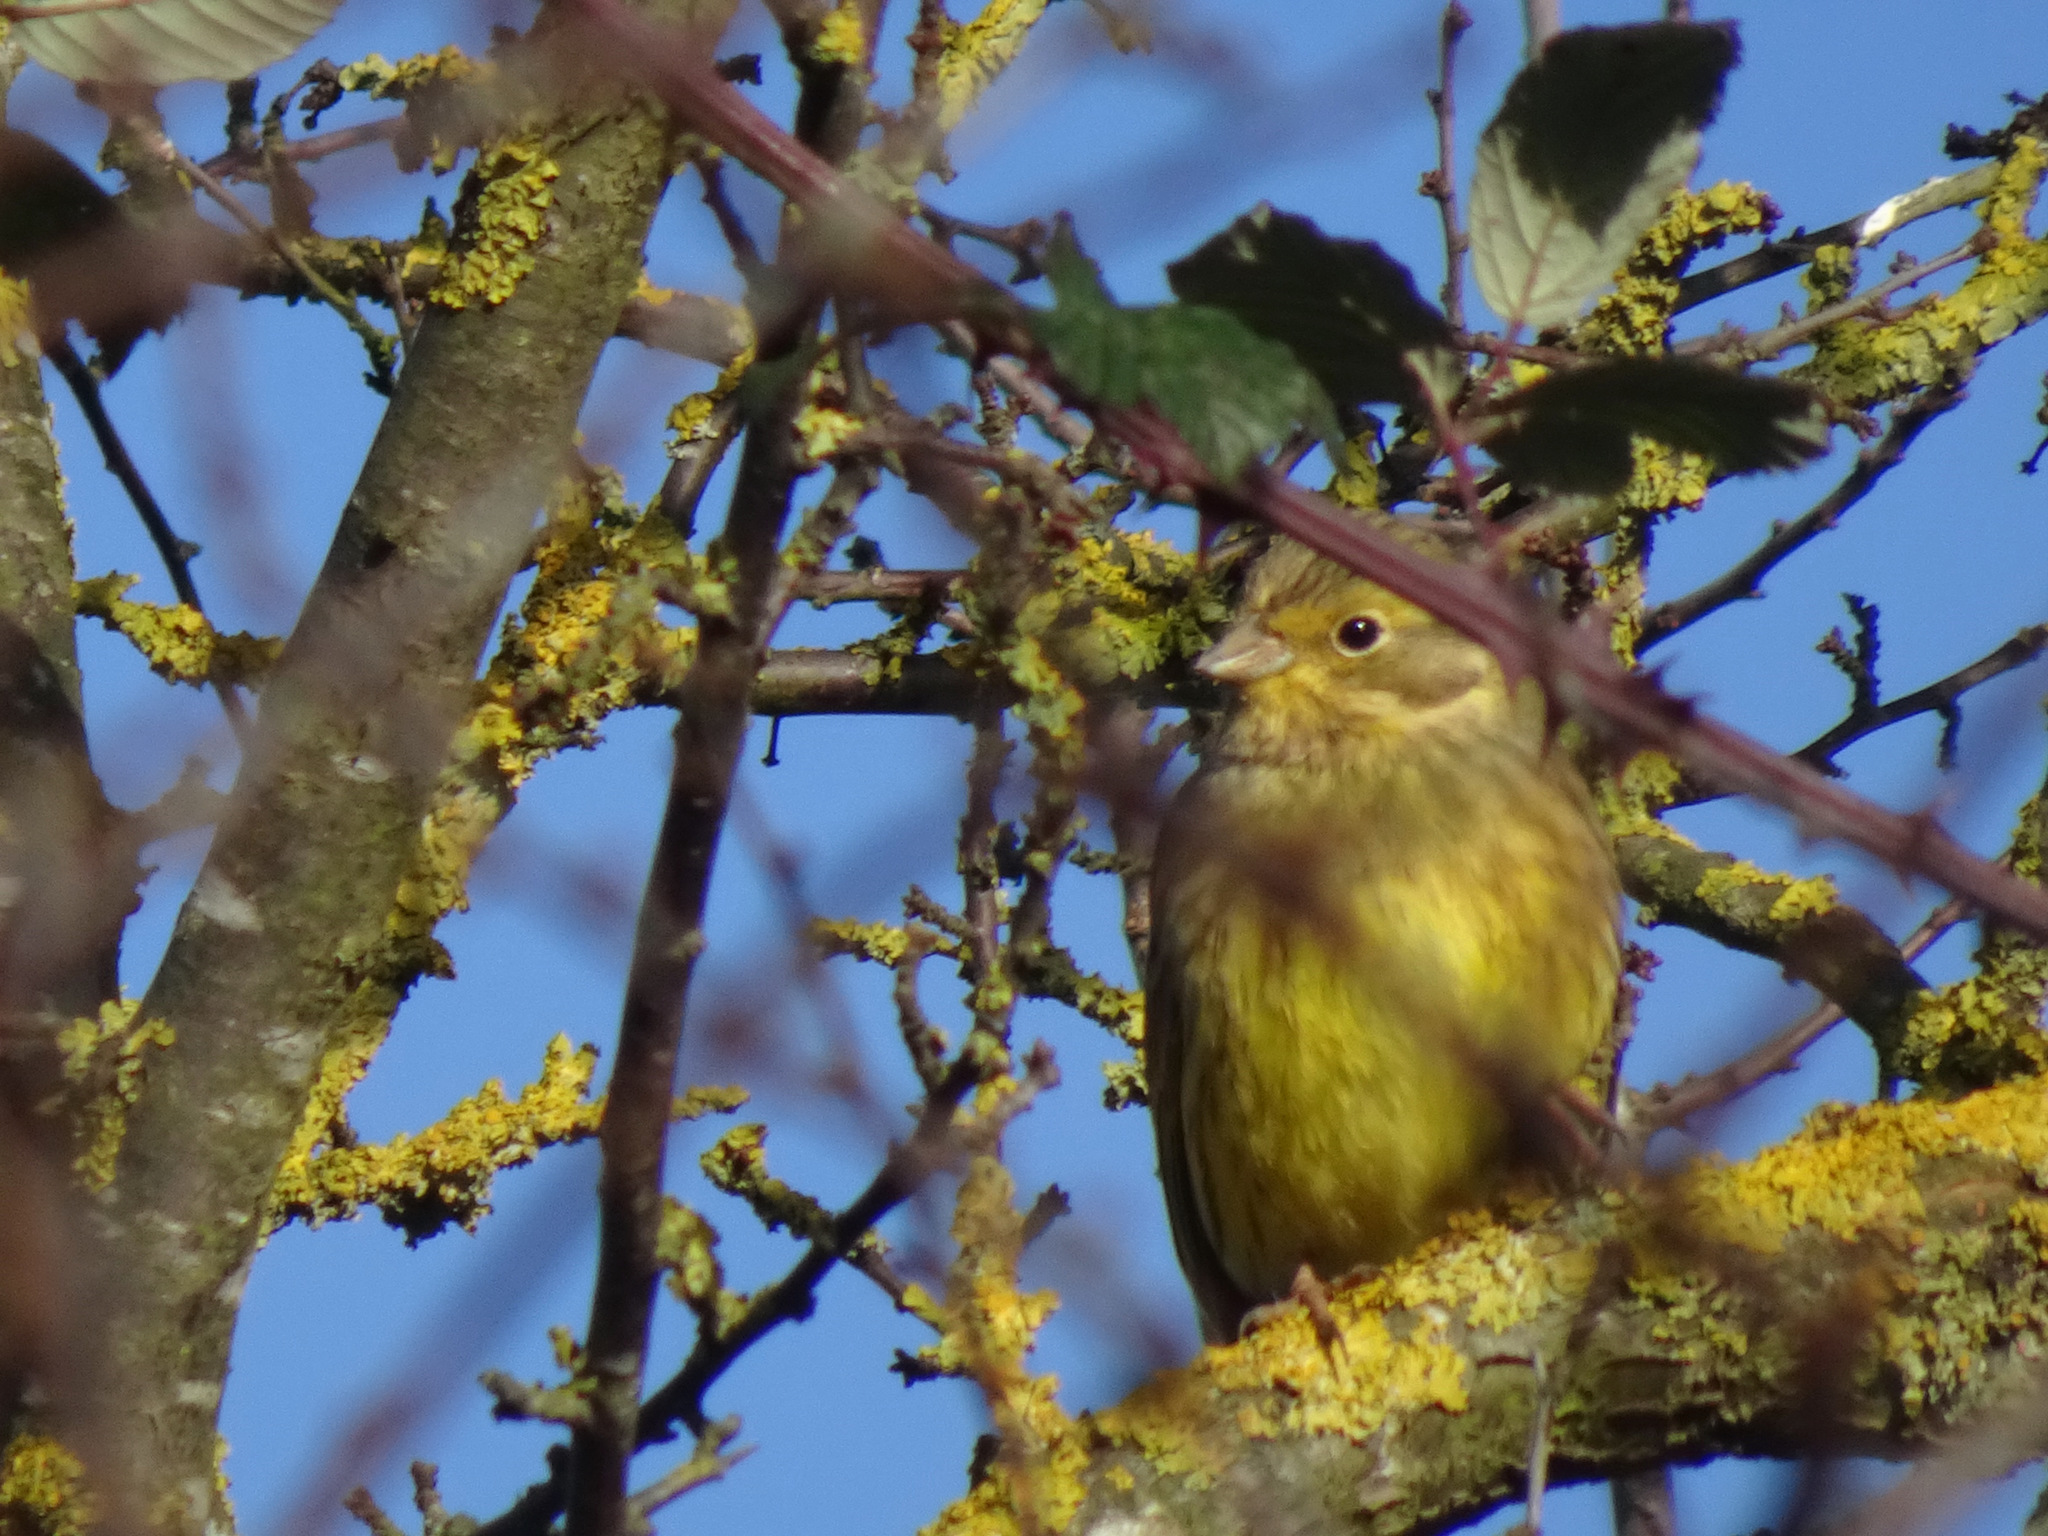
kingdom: Animalia
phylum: Chordata
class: Aves
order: Passeriformes
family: Emberizidae
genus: Emberiza
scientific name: Emberiza citrinella
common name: Yellowhammer
